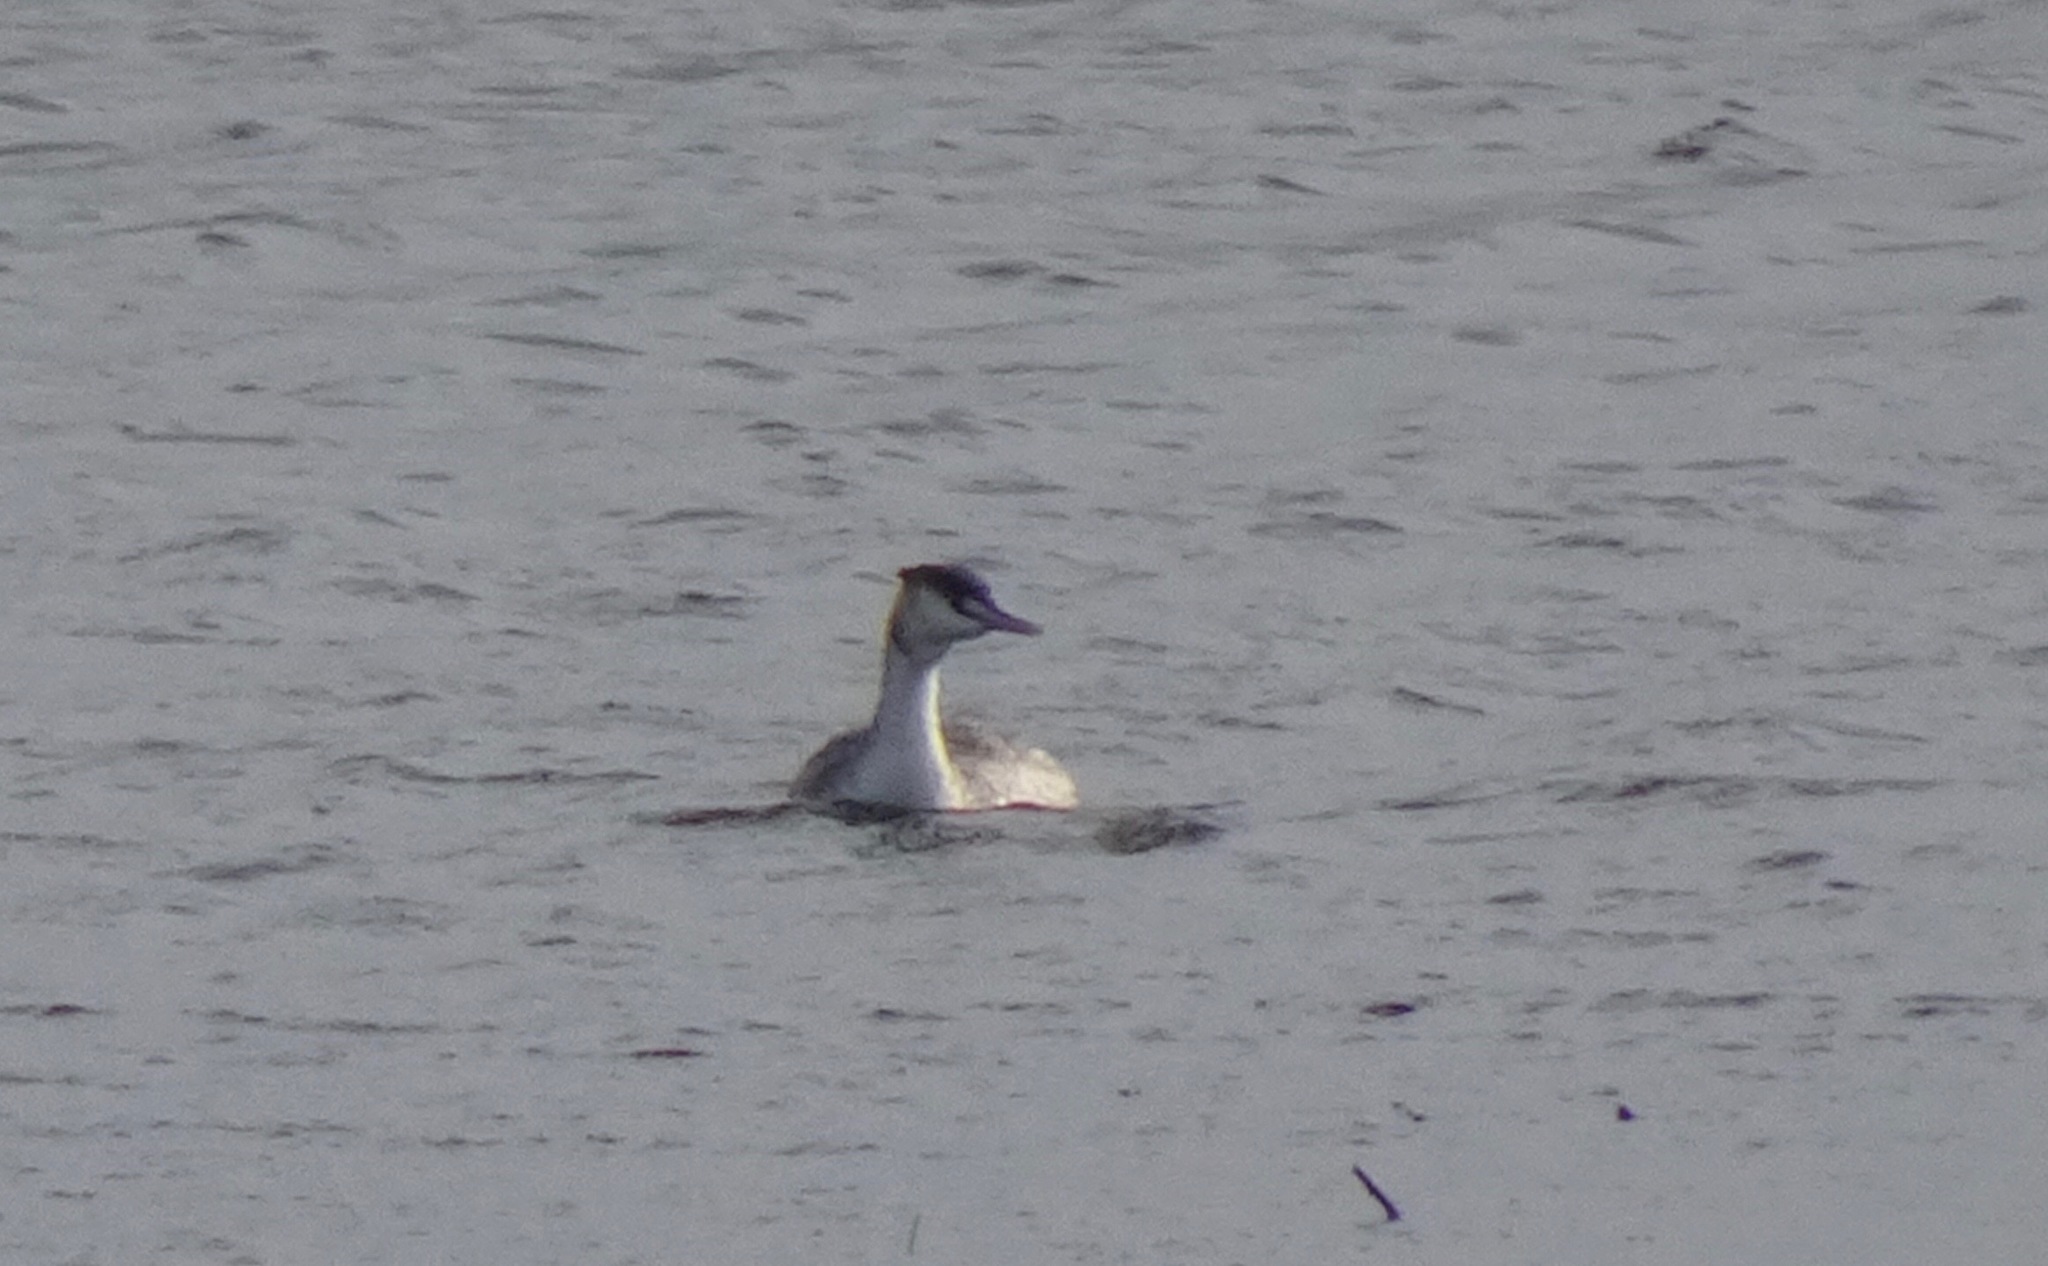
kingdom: Animalia
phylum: Chordata
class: Aves
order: Podicipediformes
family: Podicipedidae
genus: Podiceps
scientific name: Podiceps cristatus
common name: Great crested grebe
